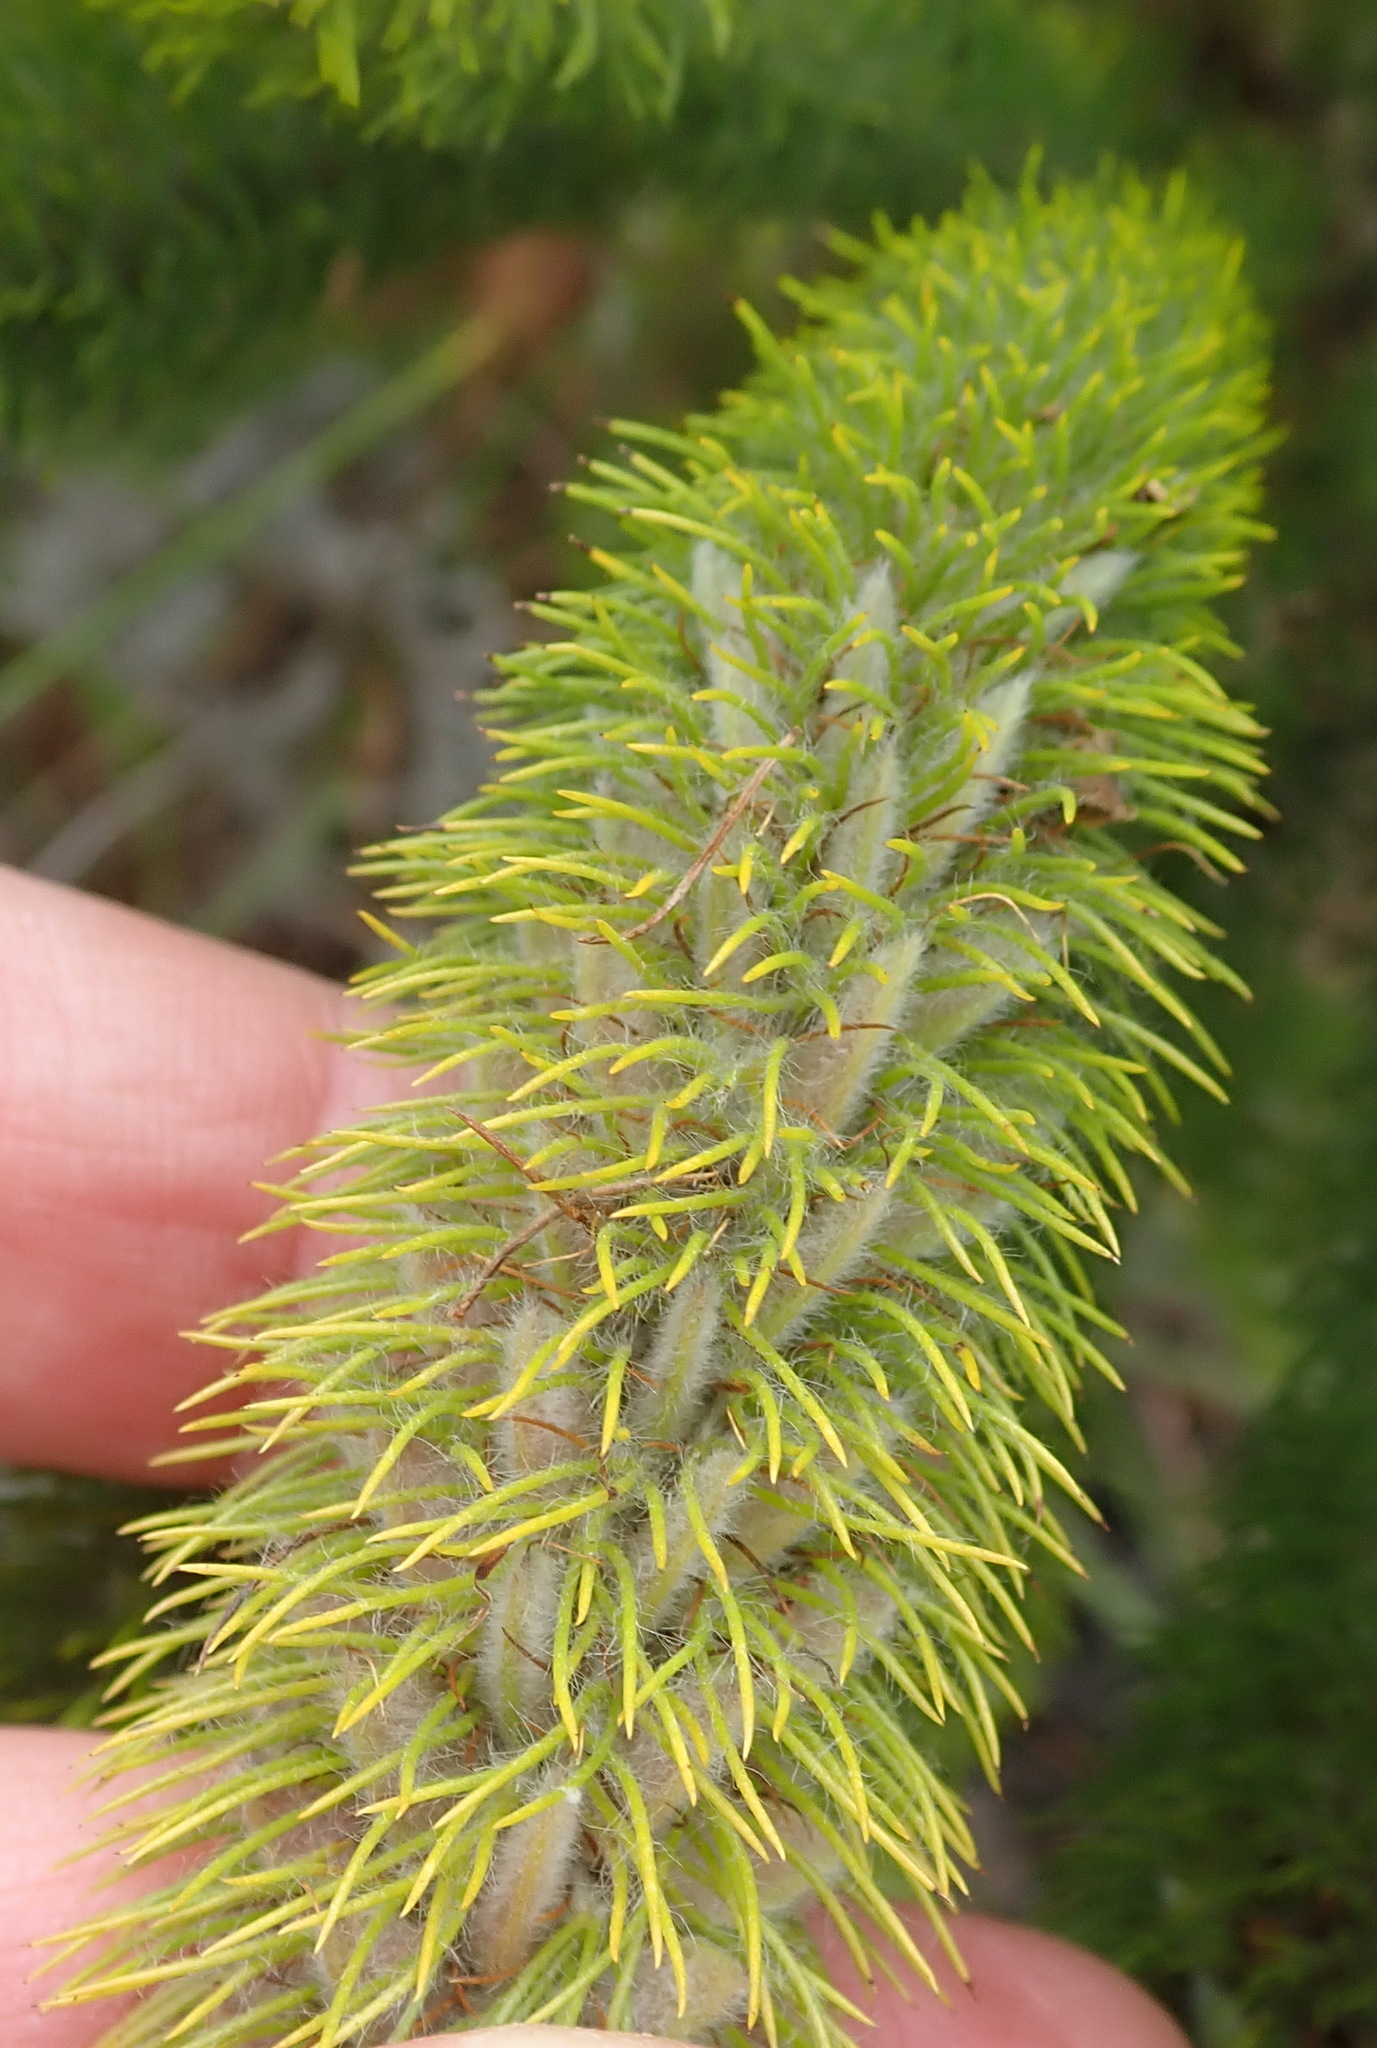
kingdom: Plantae
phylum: Tracheophyta
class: Magnoliopsida
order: Fabales
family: Fabaceae
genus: Aspalathus
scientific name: Aspalathus alopecurus
